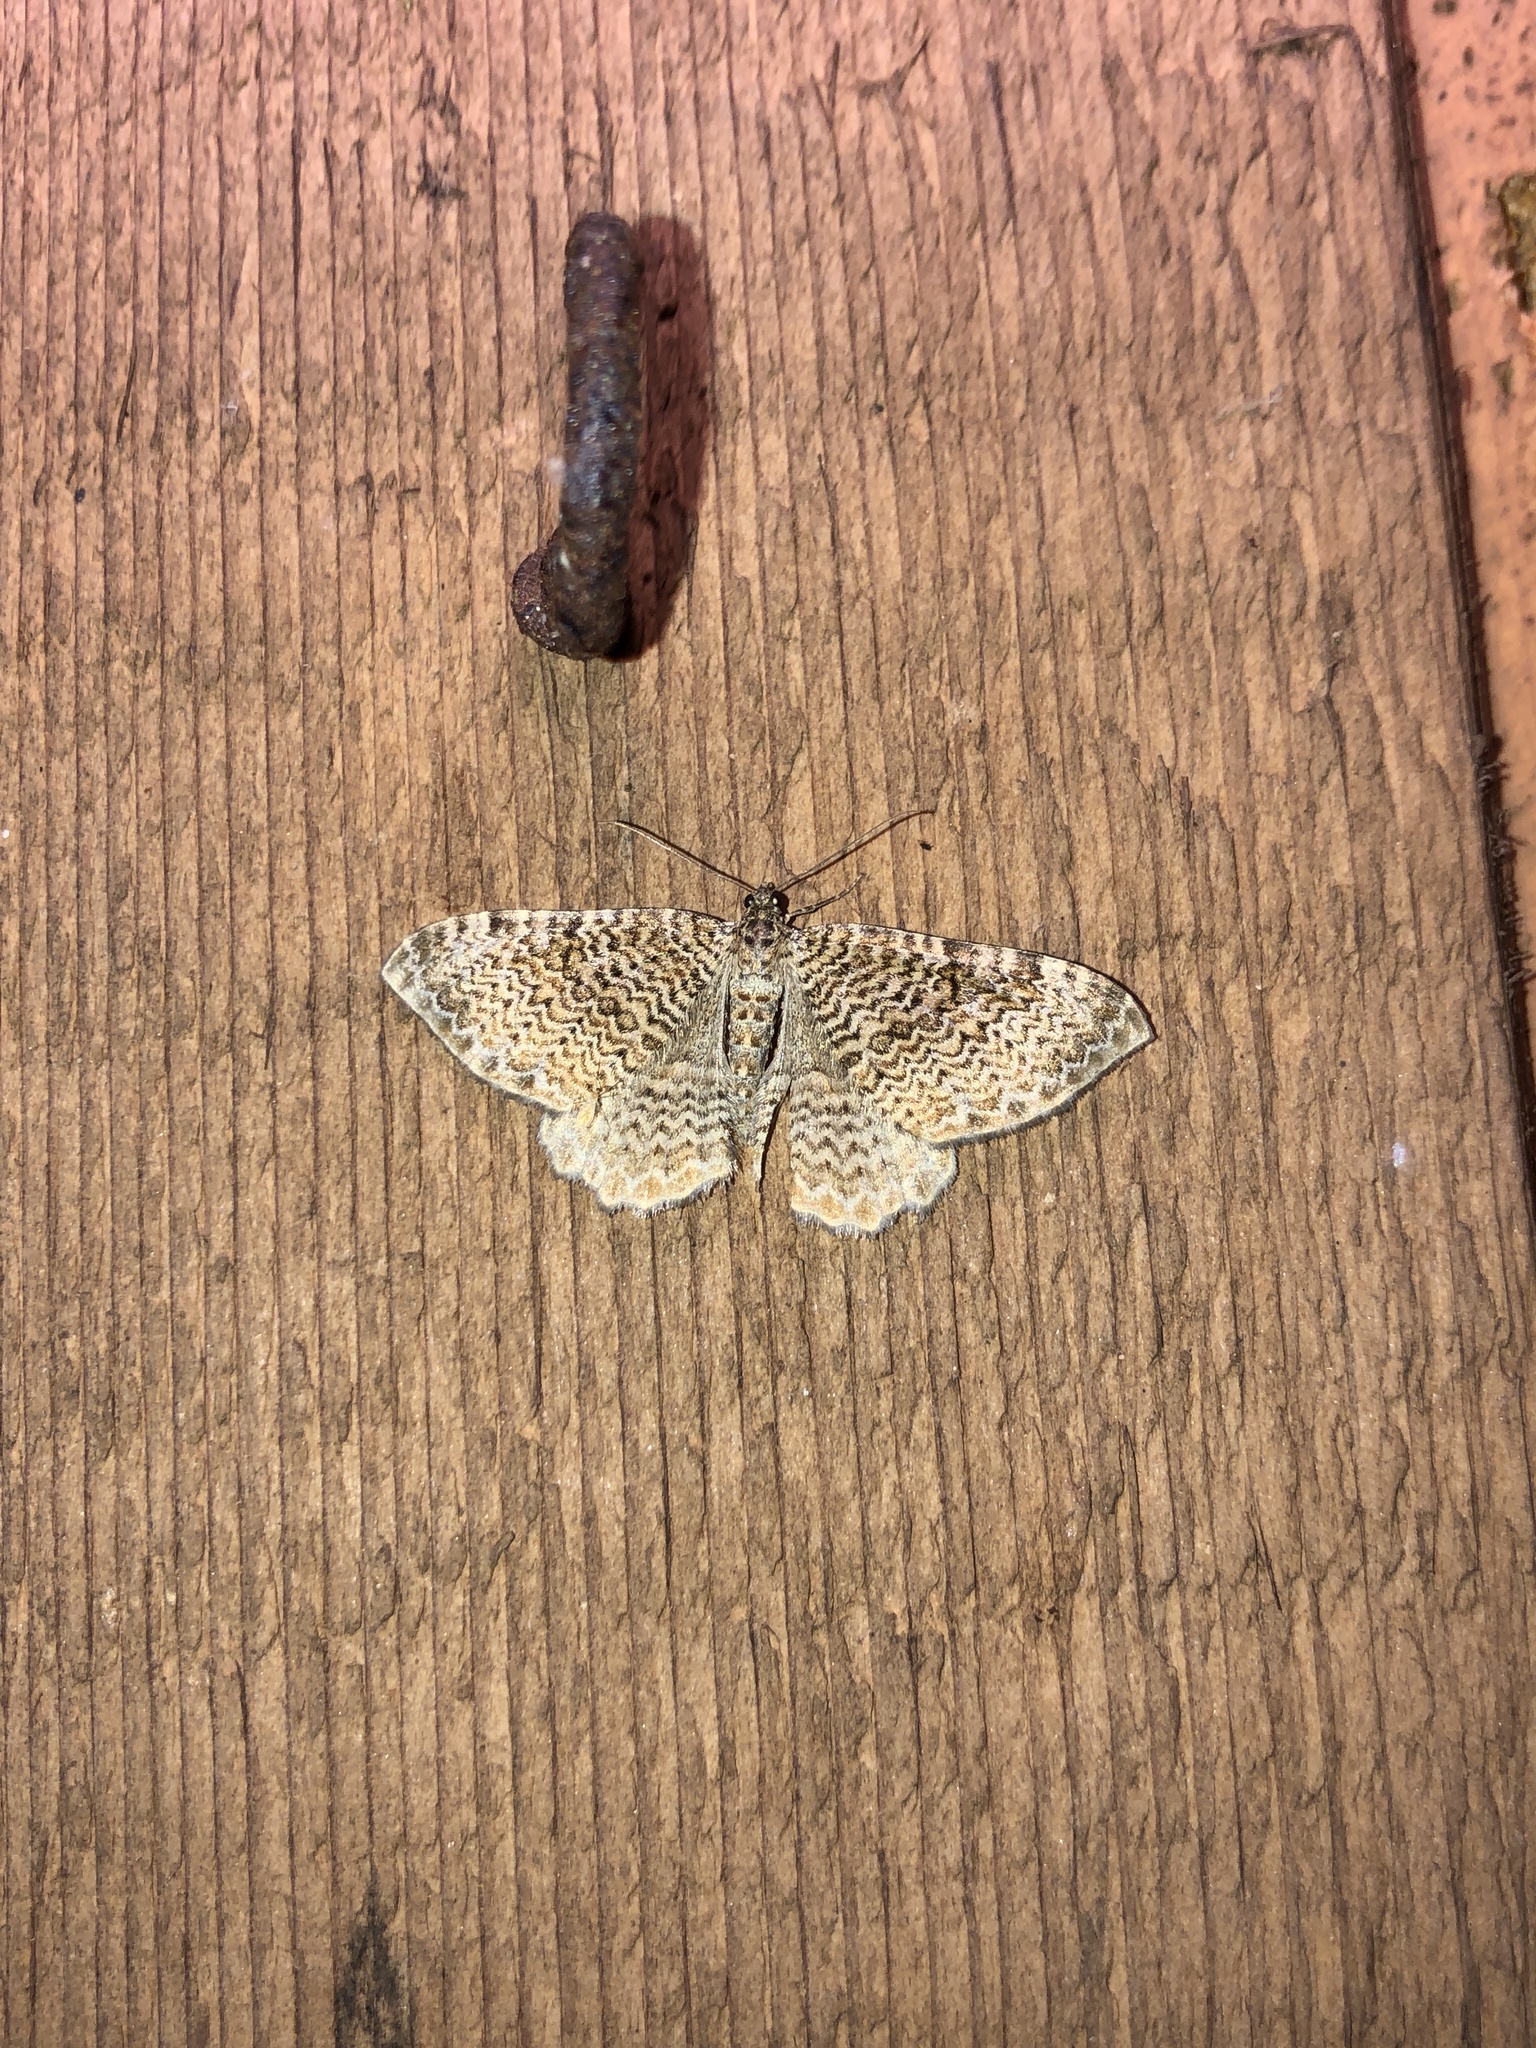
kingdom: Animalia
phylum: Arthropoda
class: Insecta
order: Lepidoptera
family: Geometridae
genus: Rheumaptera
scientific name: Rheumaptera undulata
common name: Scallop shell
